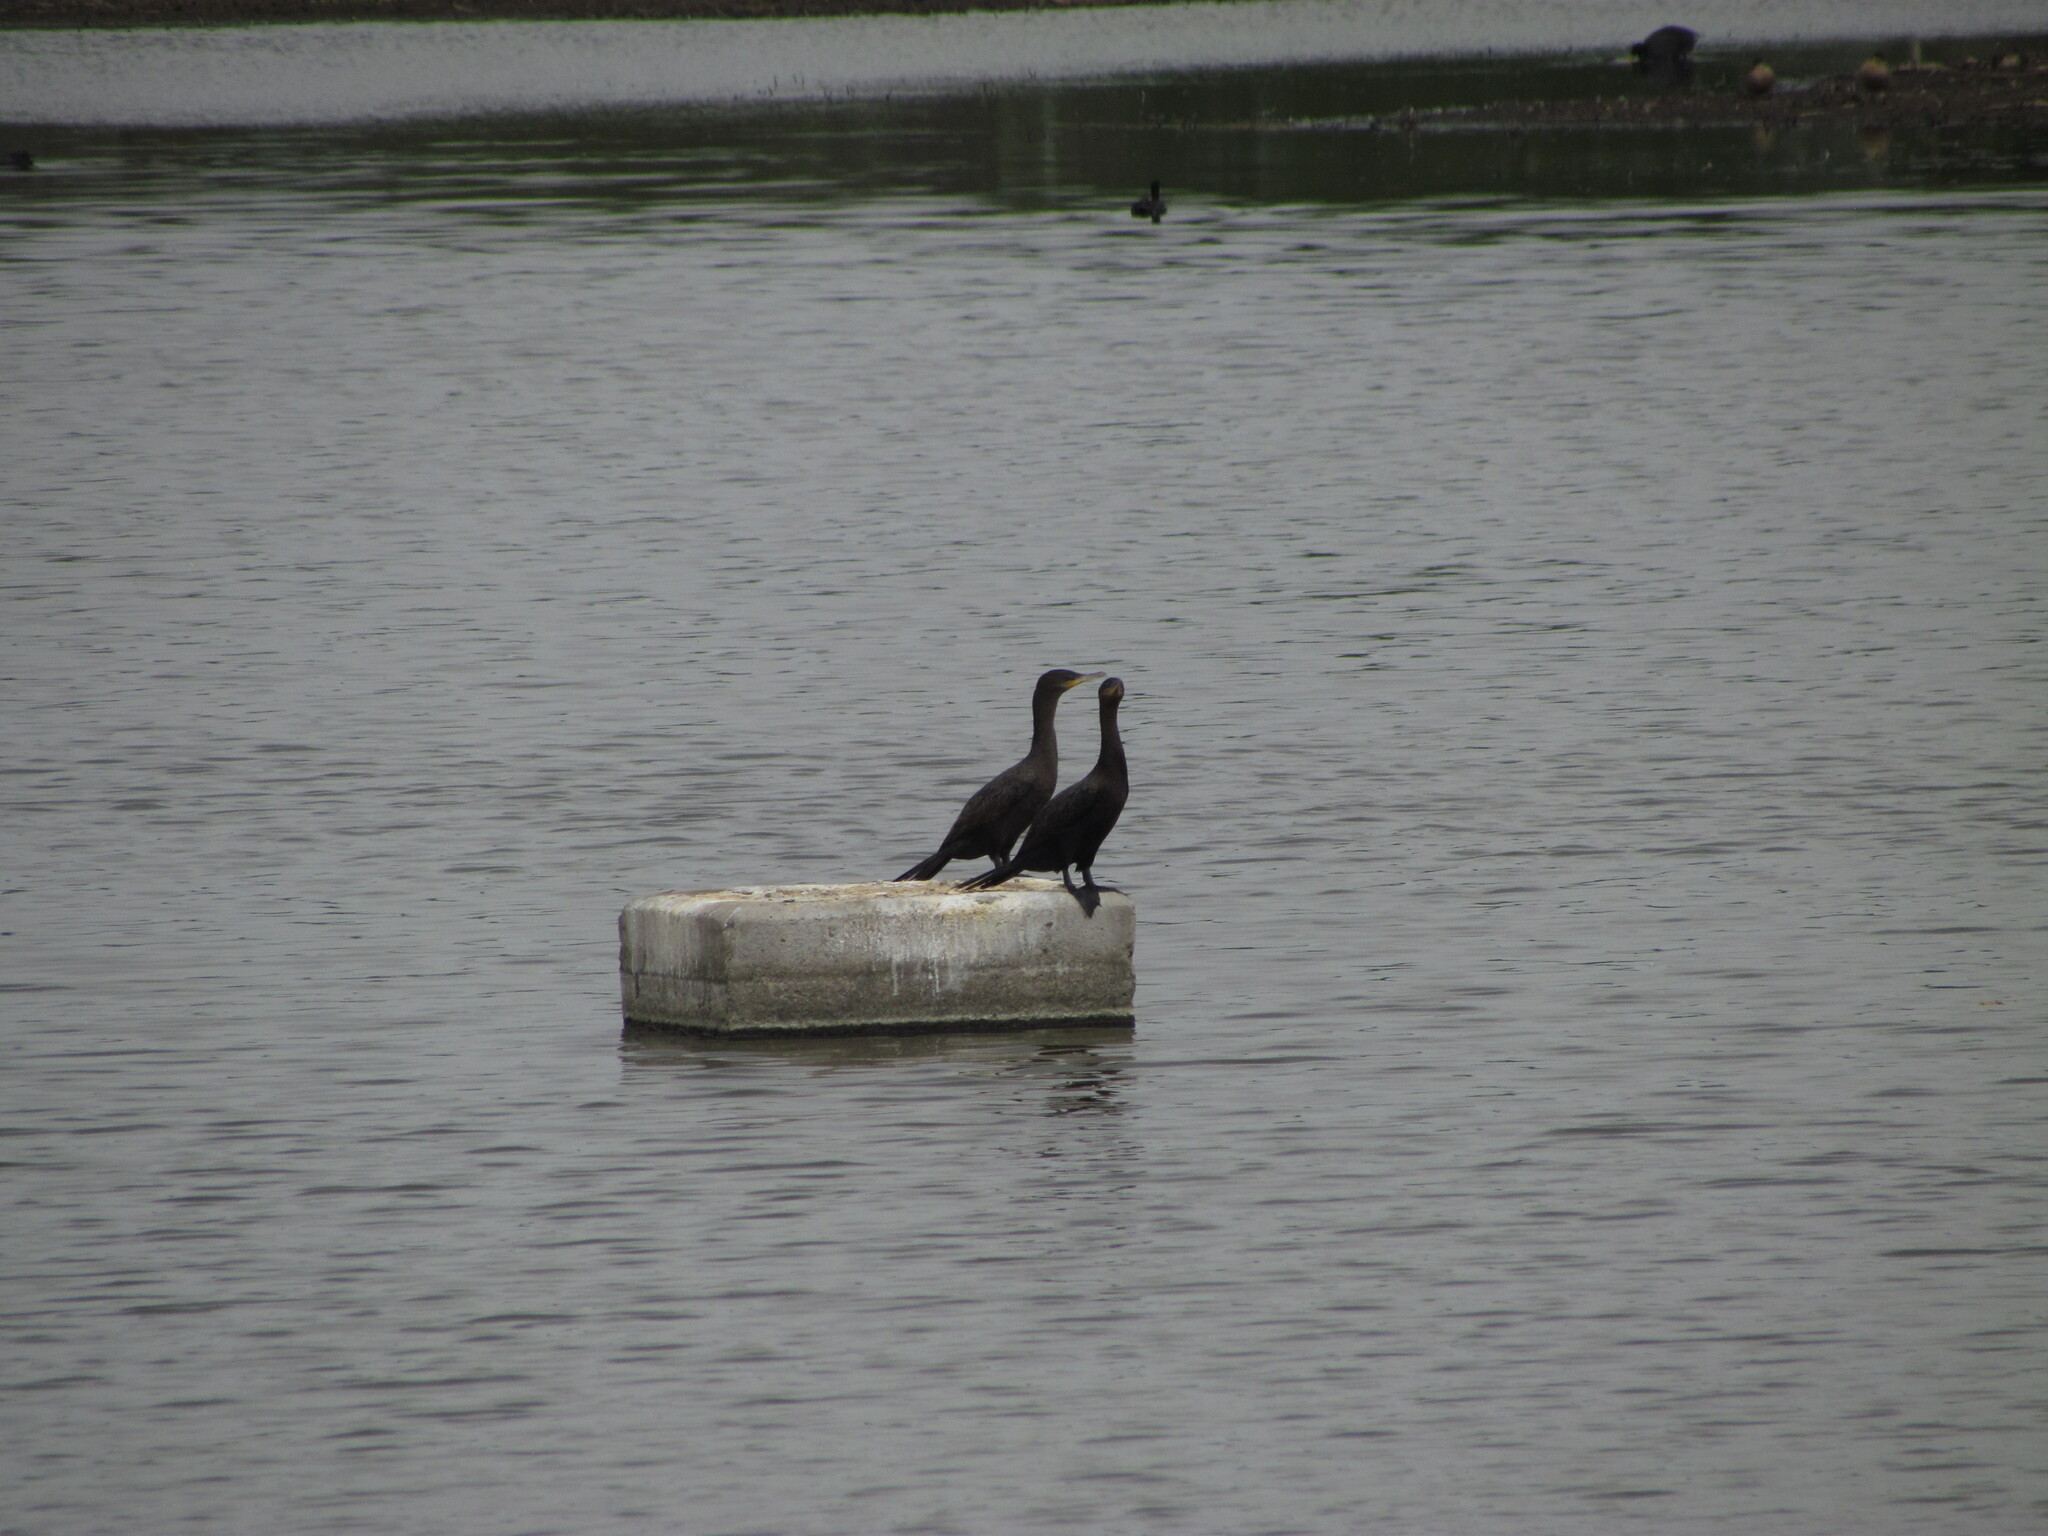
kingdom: Animalia
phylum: Chordata
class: Aves
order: Suliformes
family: Phalacrocoracidae
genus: Phalacrocorax
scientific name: Phalacrocorax brasilianus
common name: Neotropic cormorant
